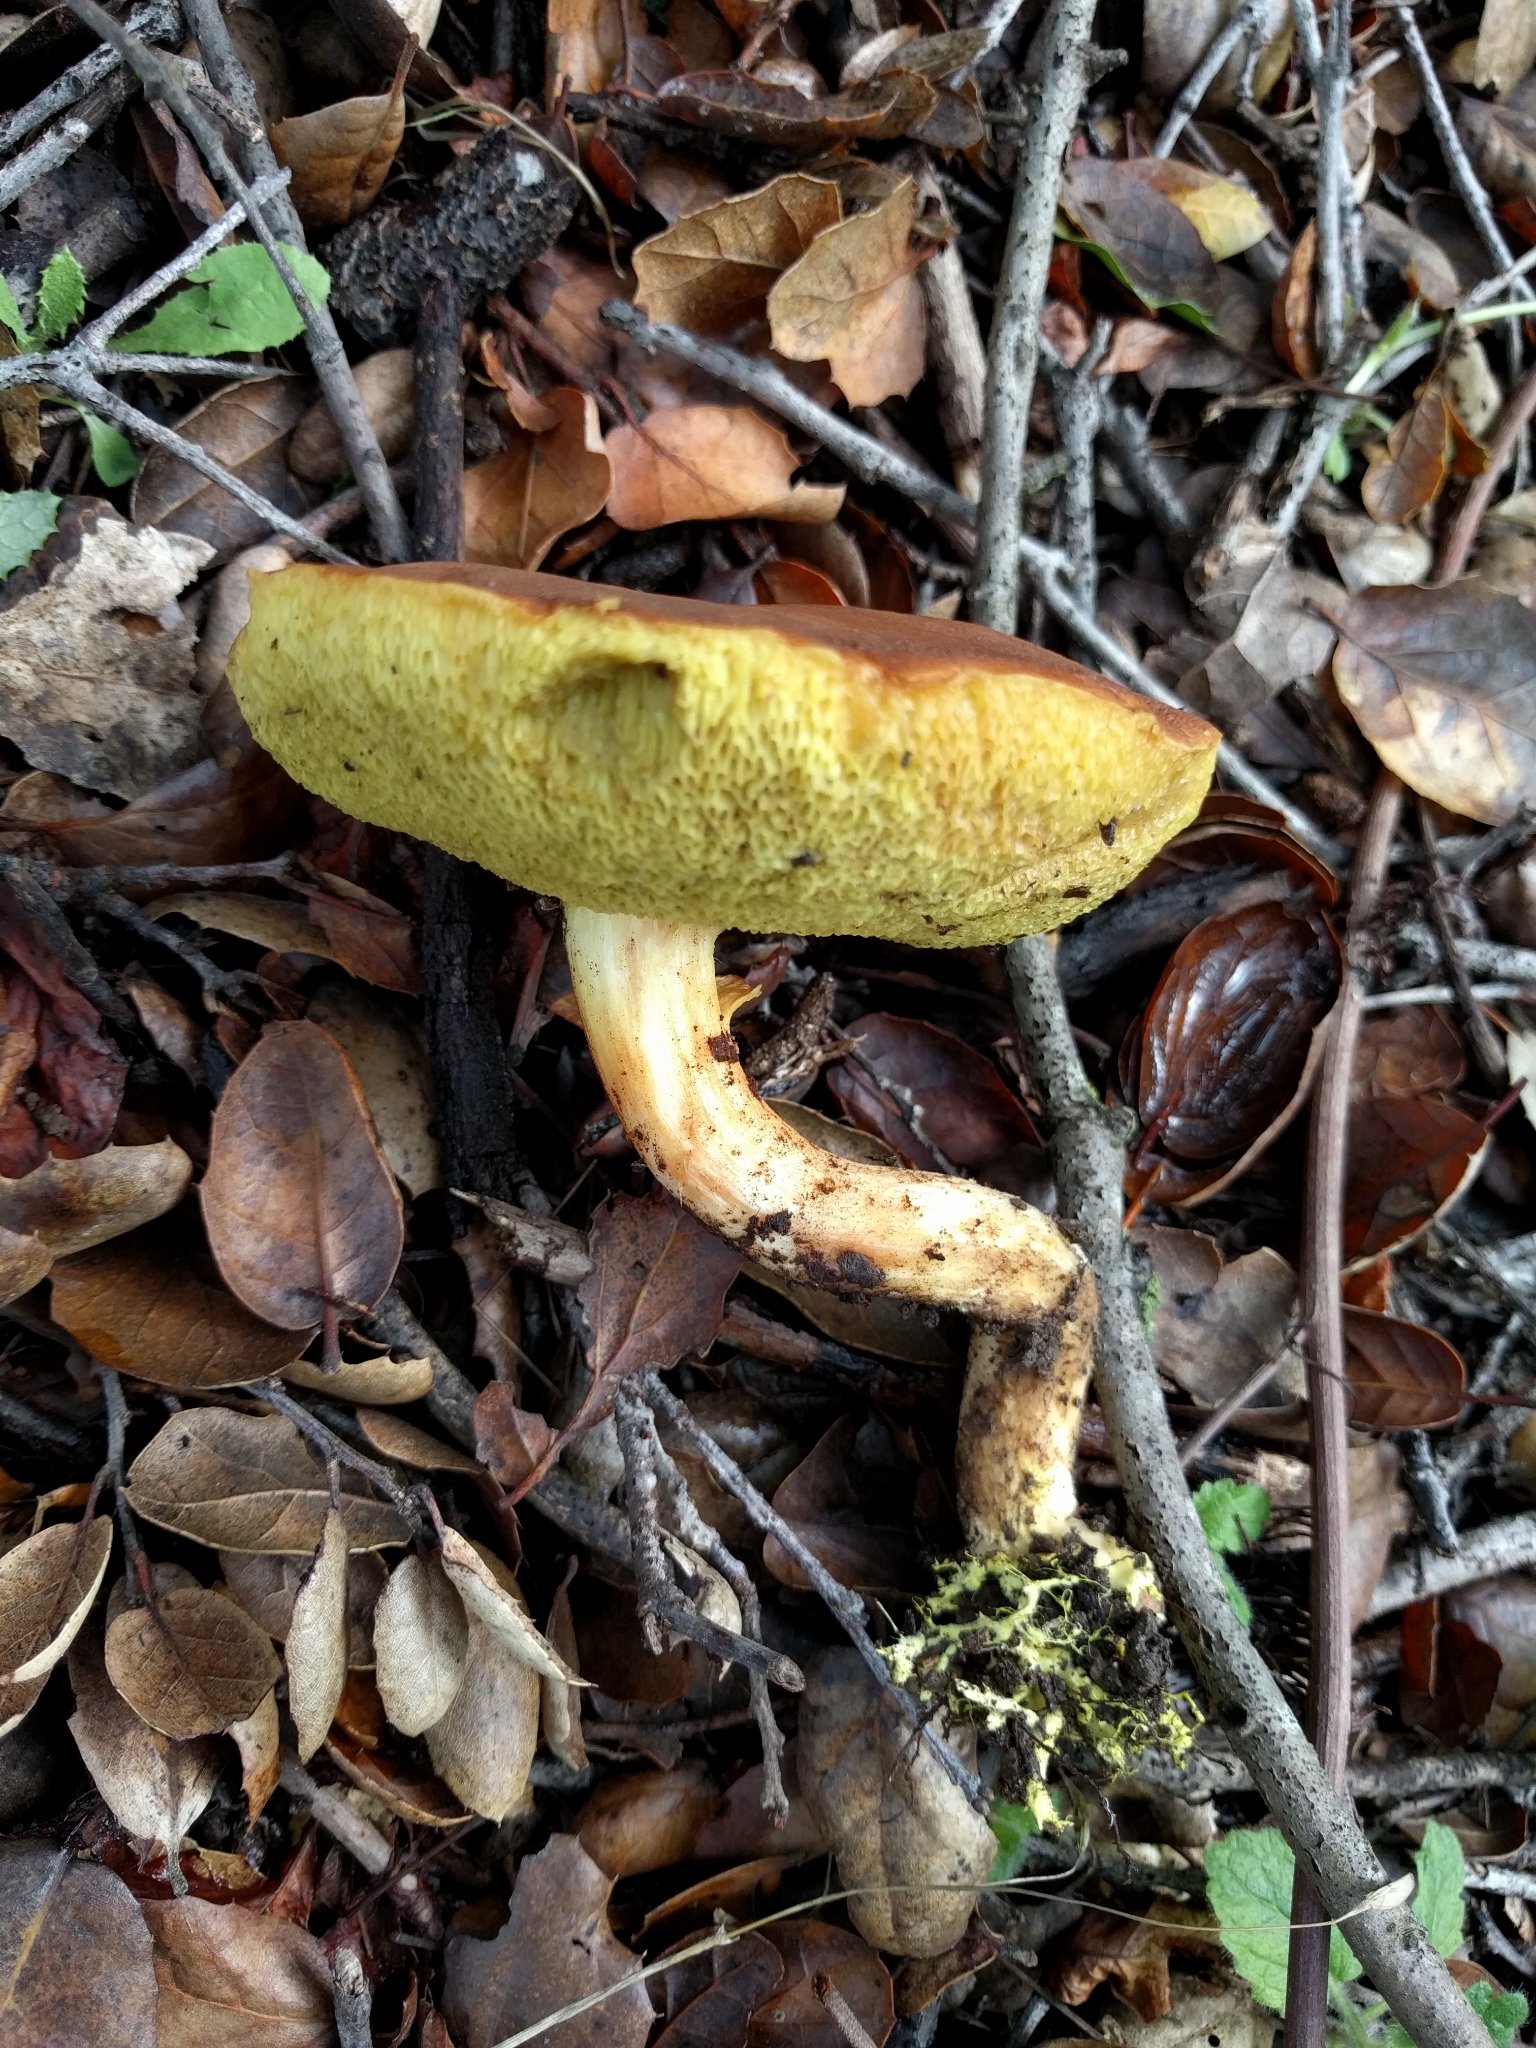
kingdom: Fungi
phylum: Basidiomycota
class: Agaricomycetes
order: Boletales
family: Boletaceae
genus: Xerocomus
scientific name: Xerocomus subtomentosus
